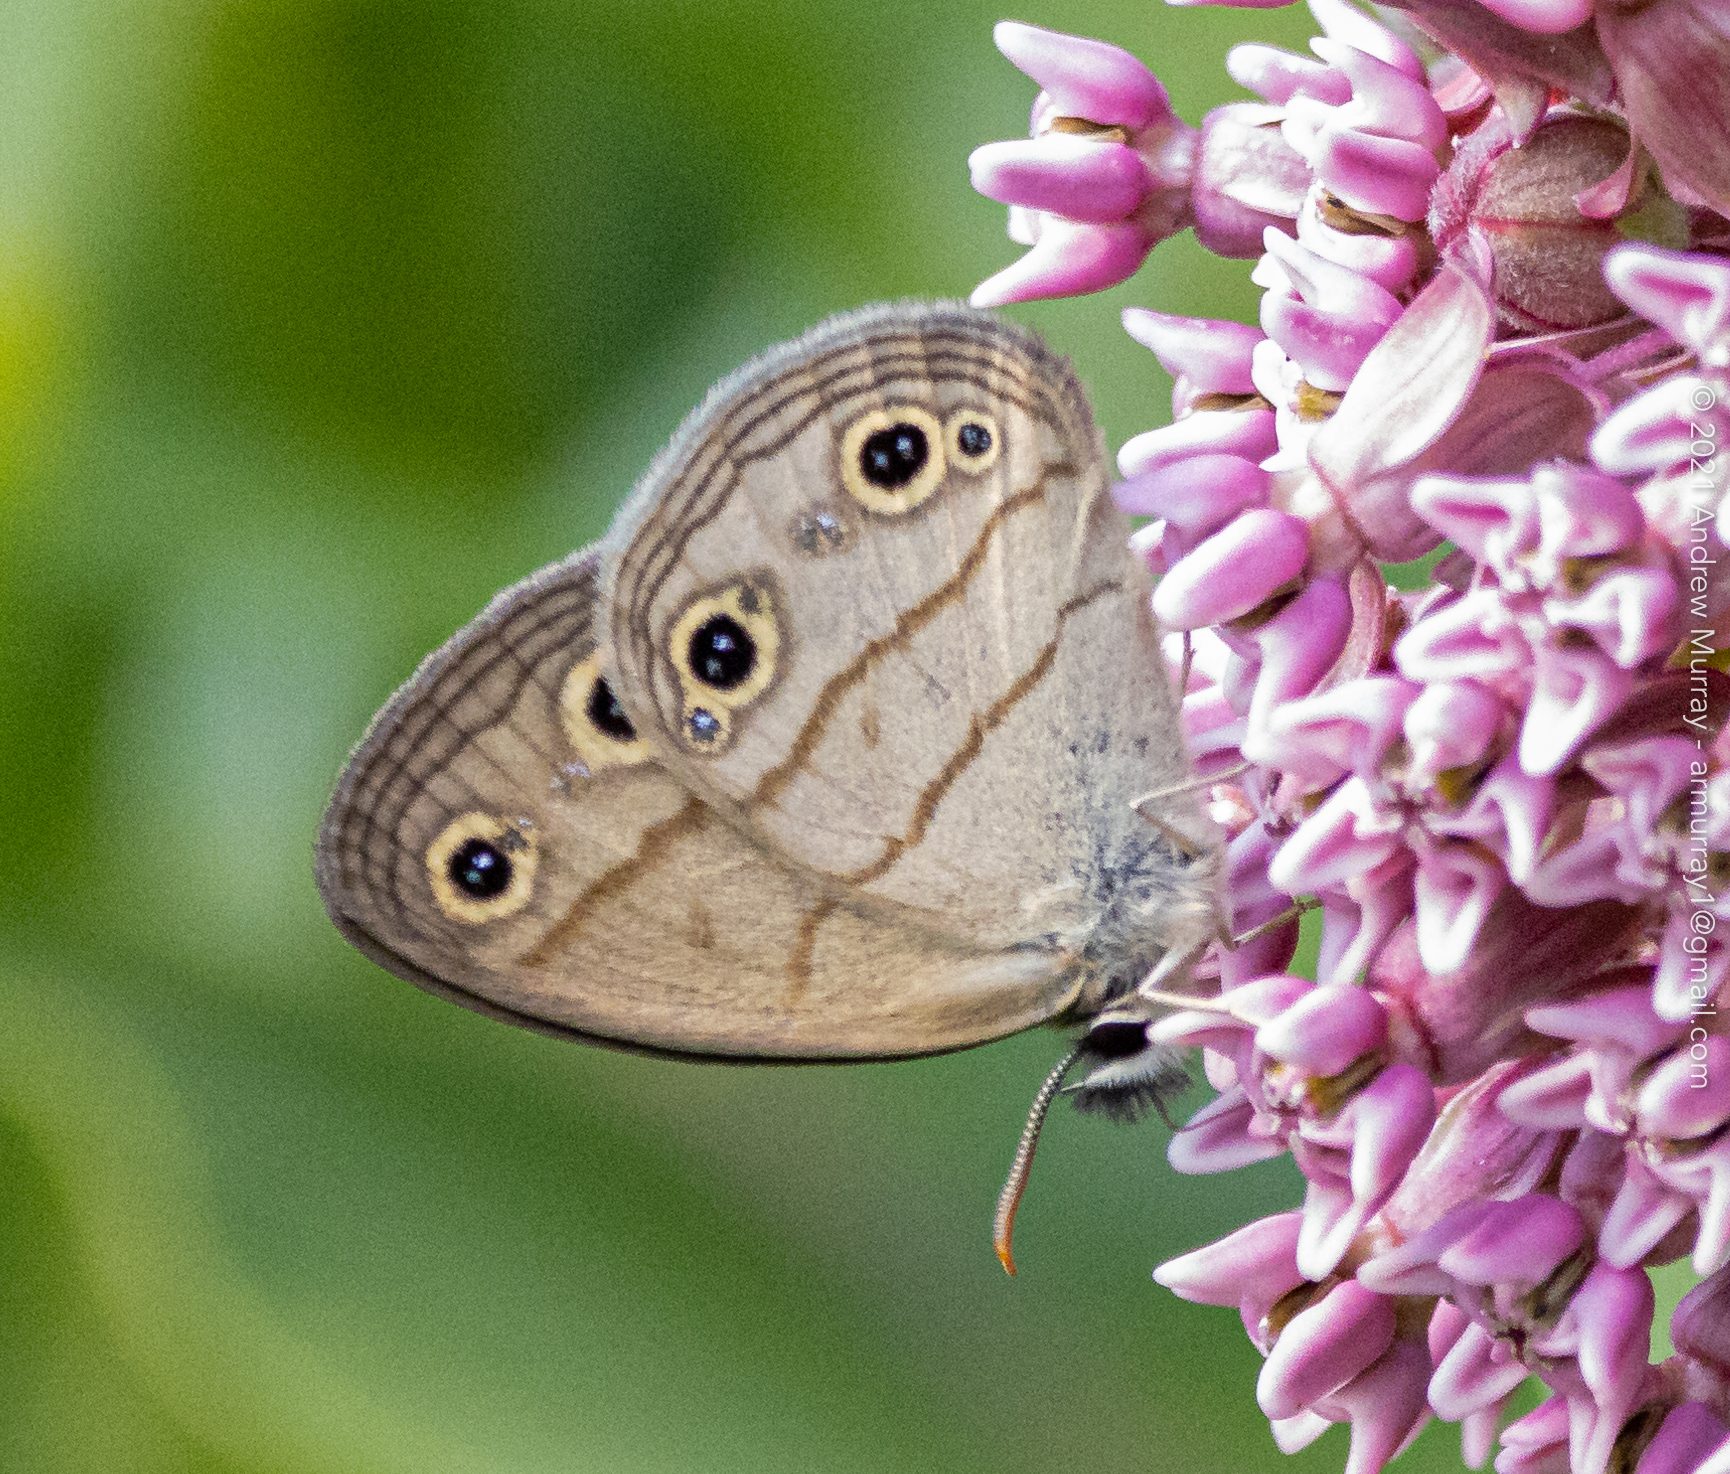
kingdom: Animalia
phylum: Arthropoda
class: Insecta
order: Lepidoptera
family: Nymphalidae
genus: Euptychia
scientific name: Euptychia cymela
